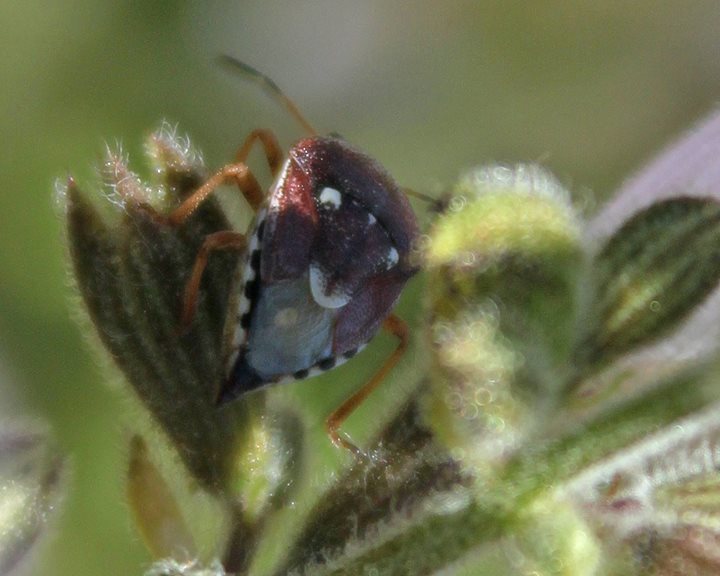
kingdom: Animalia
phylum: Arthropoda
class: Insecta
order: Hemiptera
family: Pentatomidae
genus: Stagonomus
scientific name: Stagonomus amoenus
